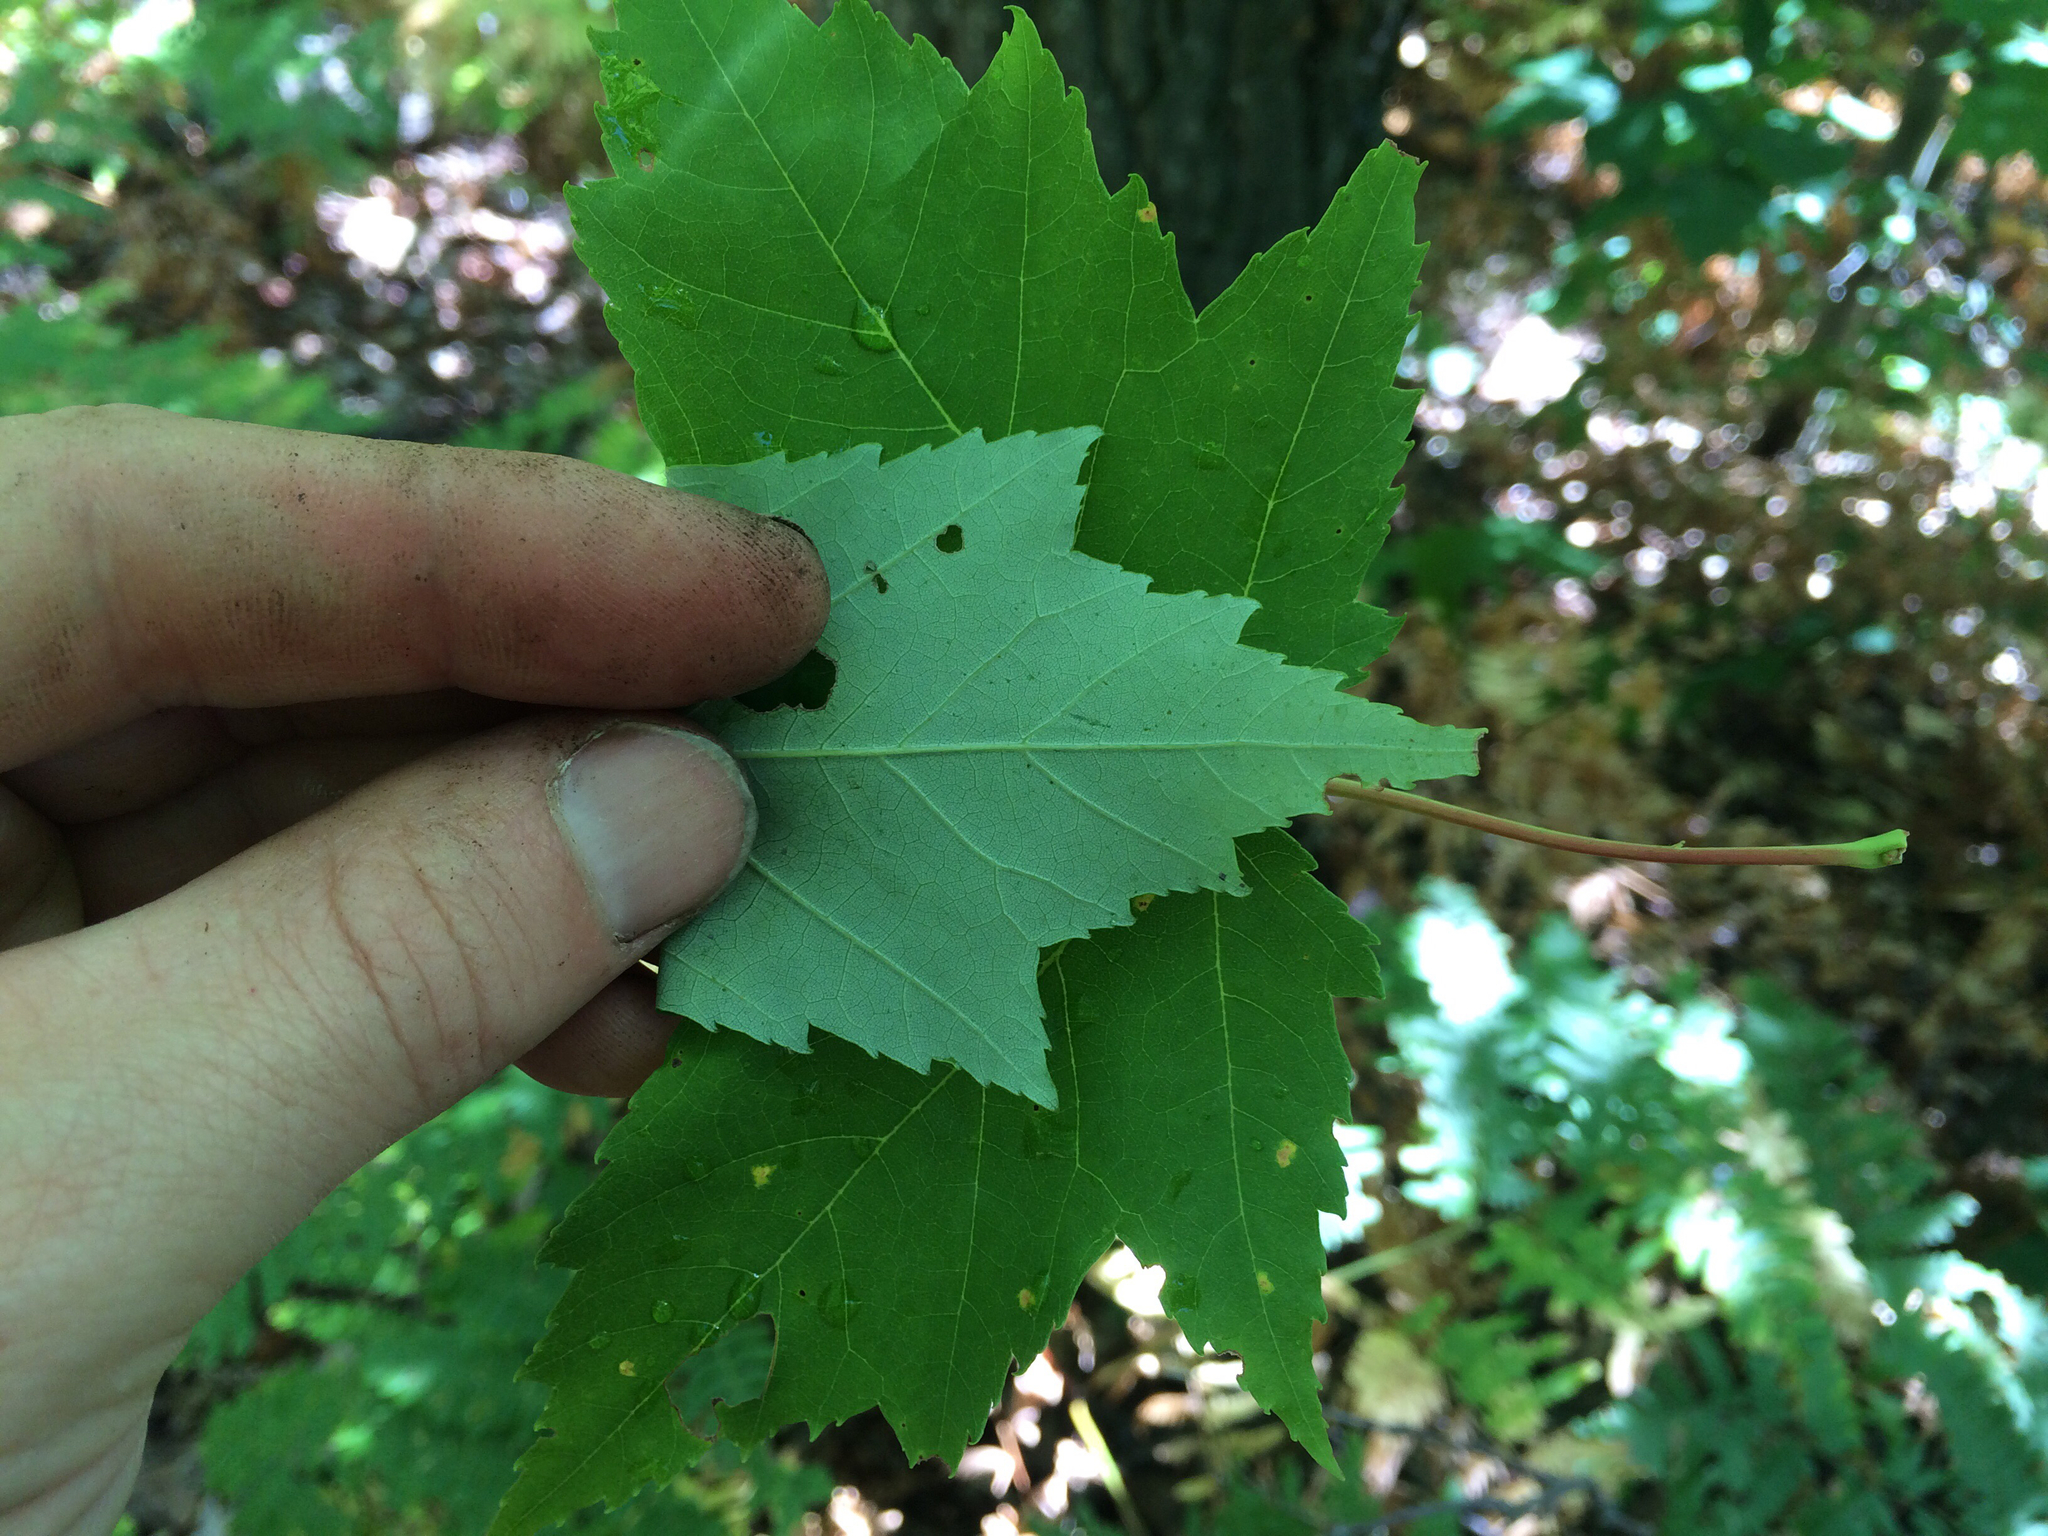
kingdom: Plantae
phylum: Tracheophyta
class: Magnoliopsida
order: Sapindales
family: Sapindaceae
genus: Acer
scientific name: Acer rubrum
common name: Red maple
